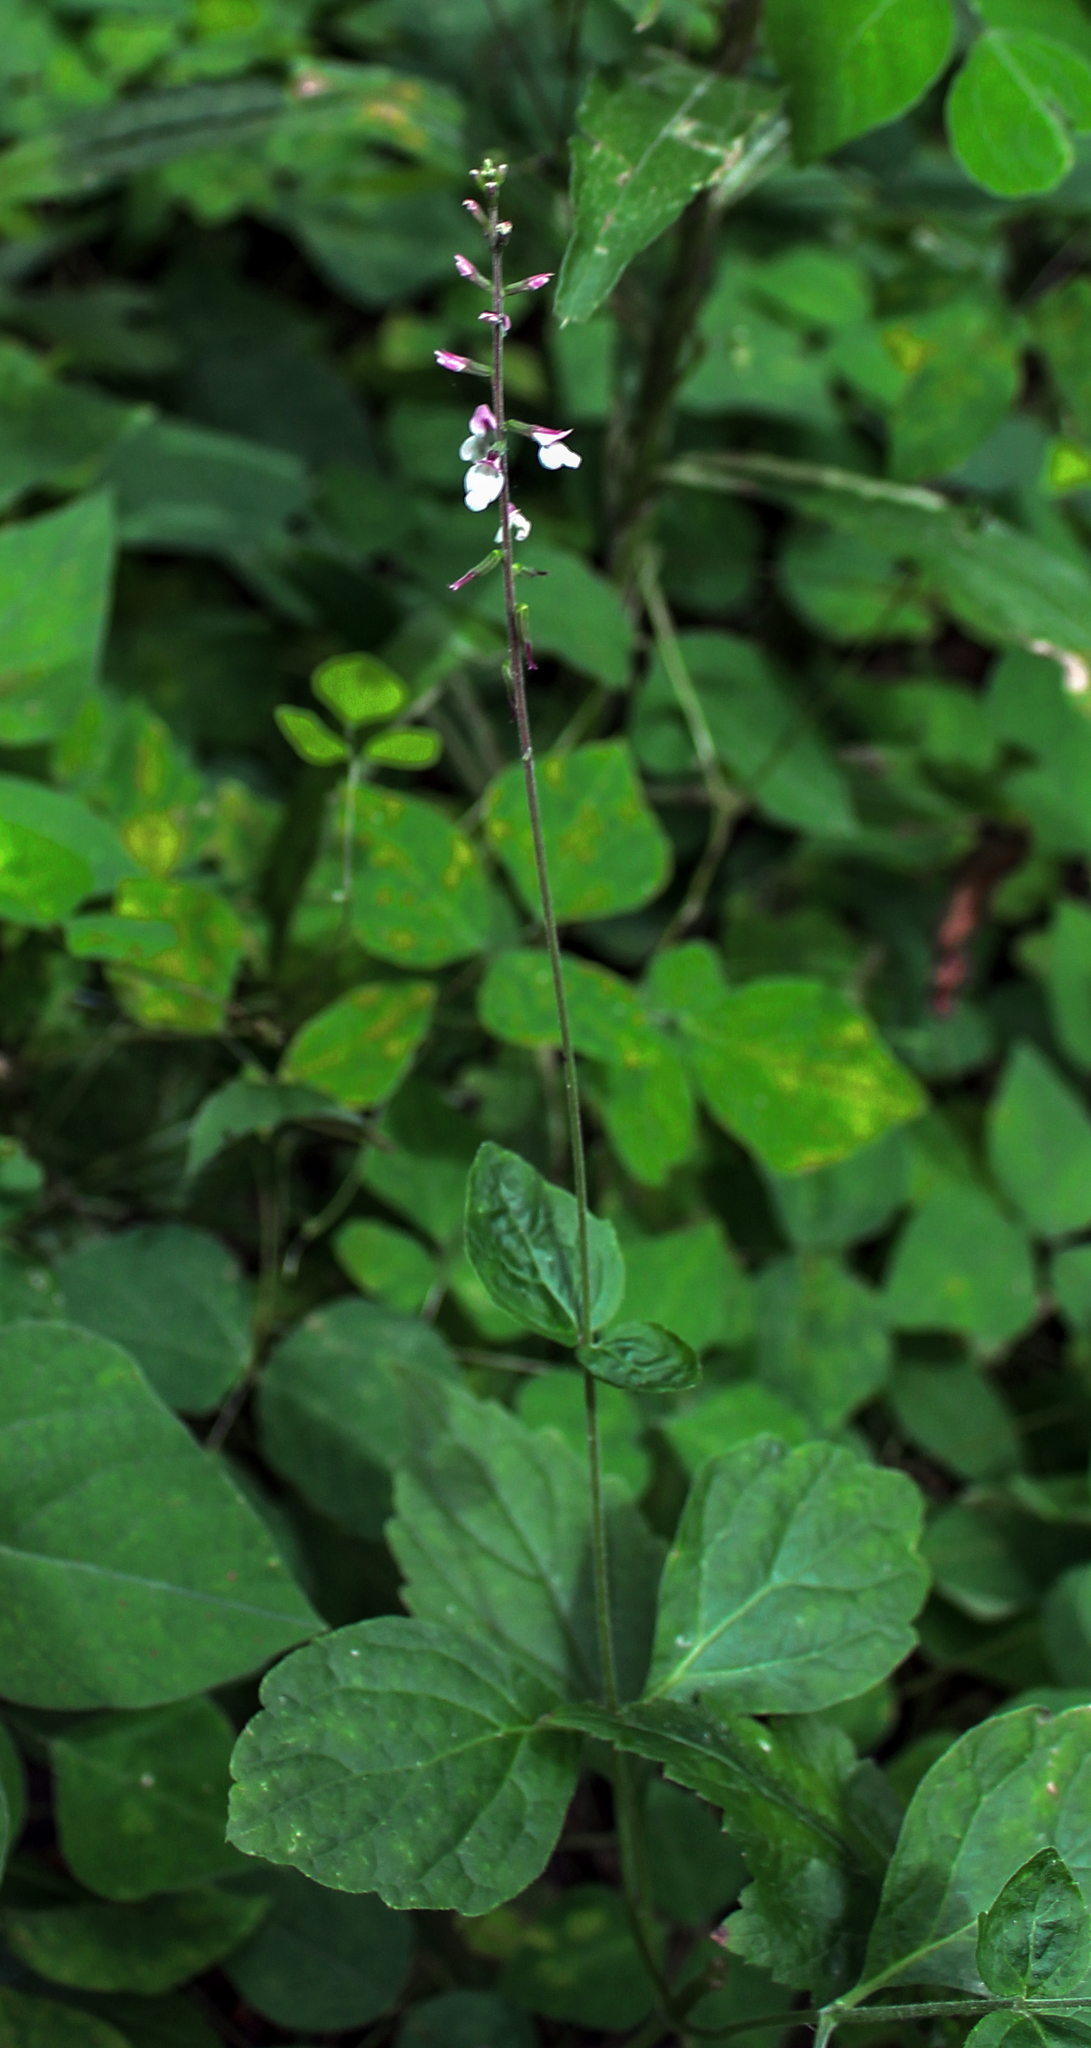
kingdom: Plantae
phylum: Tracheophyta
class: Magnoliopsida
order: Lamiales
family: Phrymaceae
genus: Phryma
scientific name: Phryma leptostachya
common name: American lopseed
